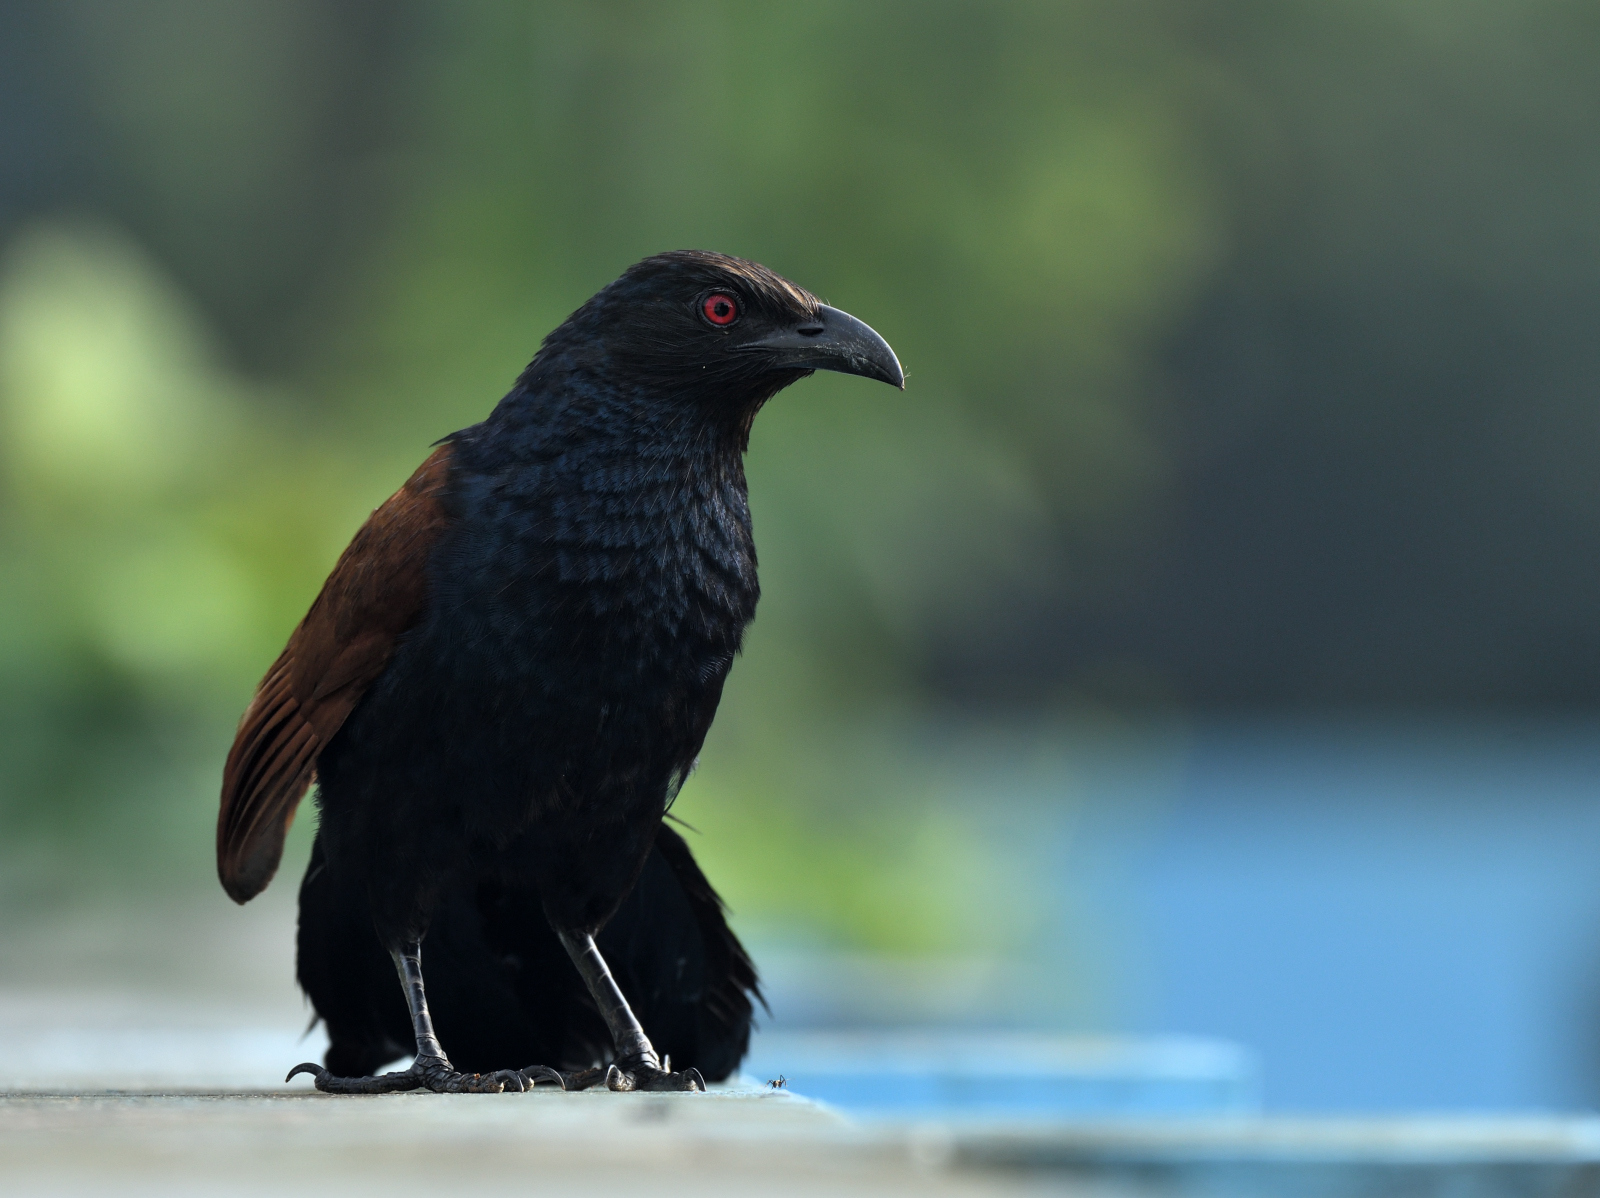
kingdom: Animalia
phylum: Chordata
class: Aves
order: Cuculiformes
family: Cuculidae
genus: Centropus
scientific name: Centropus sinensis
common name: Greater coucal
